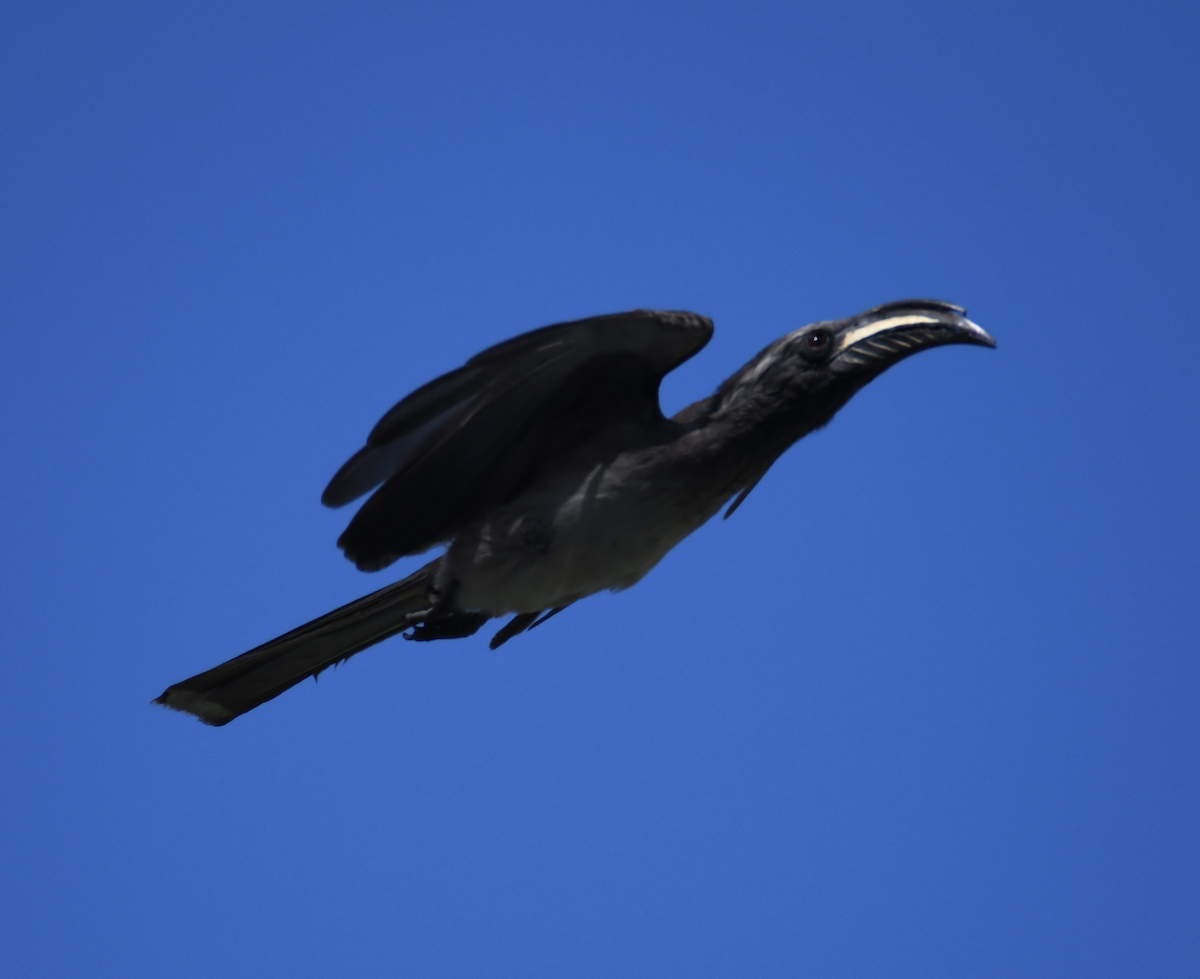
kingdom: Animalia
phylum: Chordata
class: Aves
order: Bucerotiformes
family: Bucerotidae
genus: Lophoceros
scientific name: Lophoceros nasutus
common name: African grey hornbill
